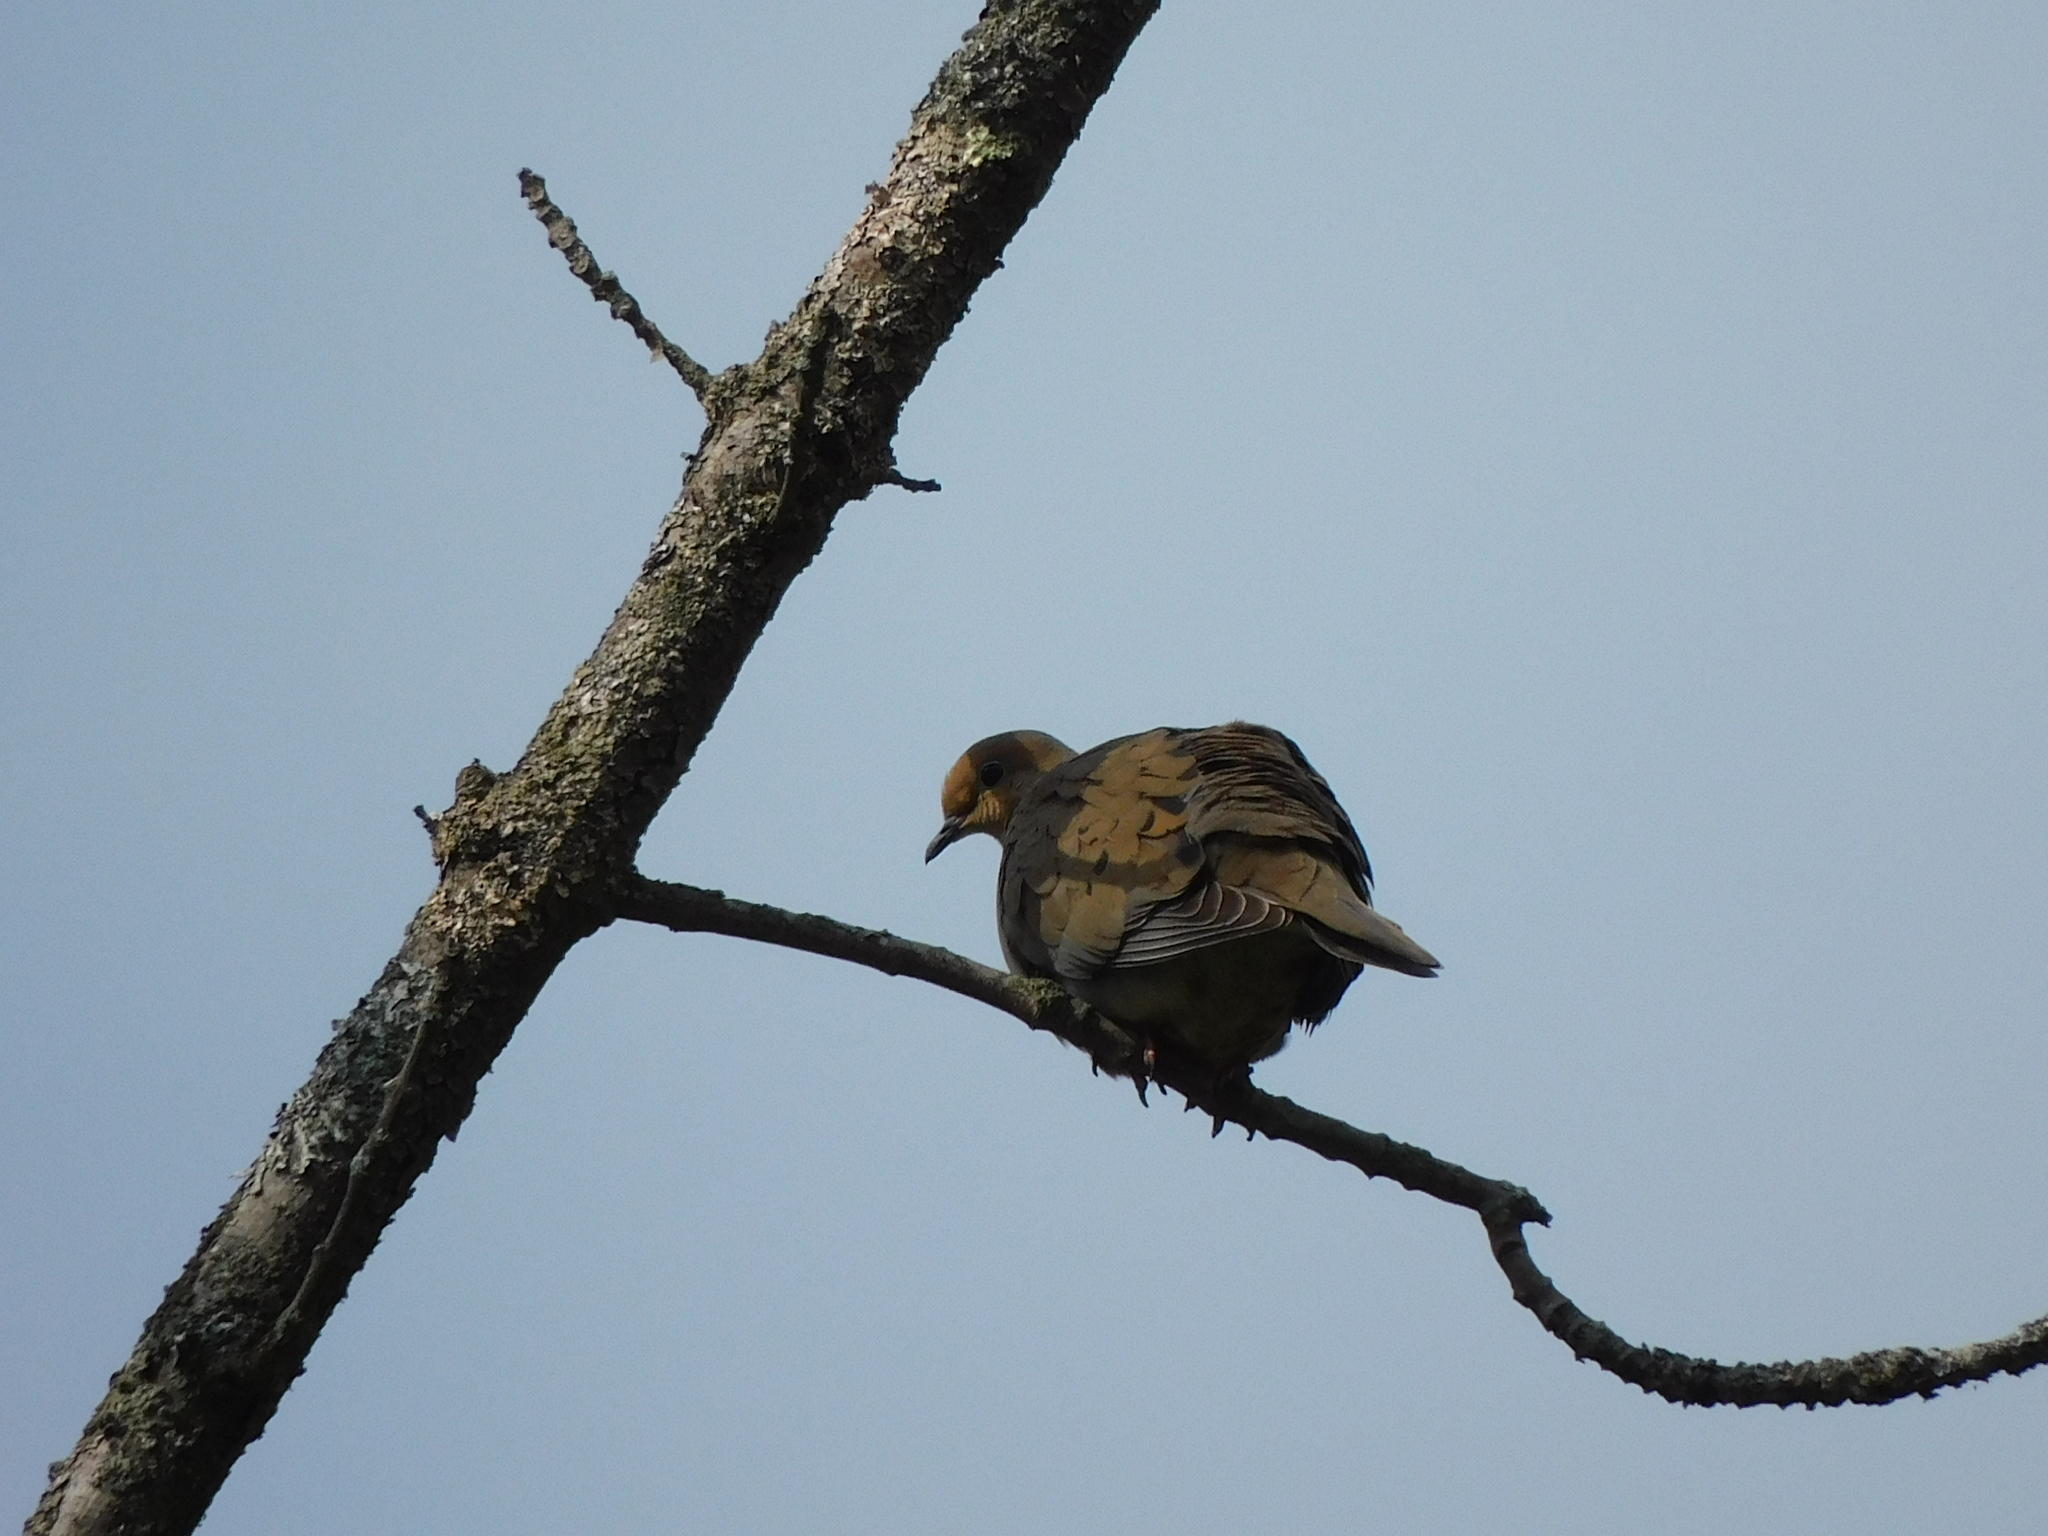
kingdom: Animalia
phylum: Chordata
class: Aves
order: Columbiformes
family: Columbidae
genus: Zenaida
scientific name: Zenaida macroura
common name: Mourning dove
